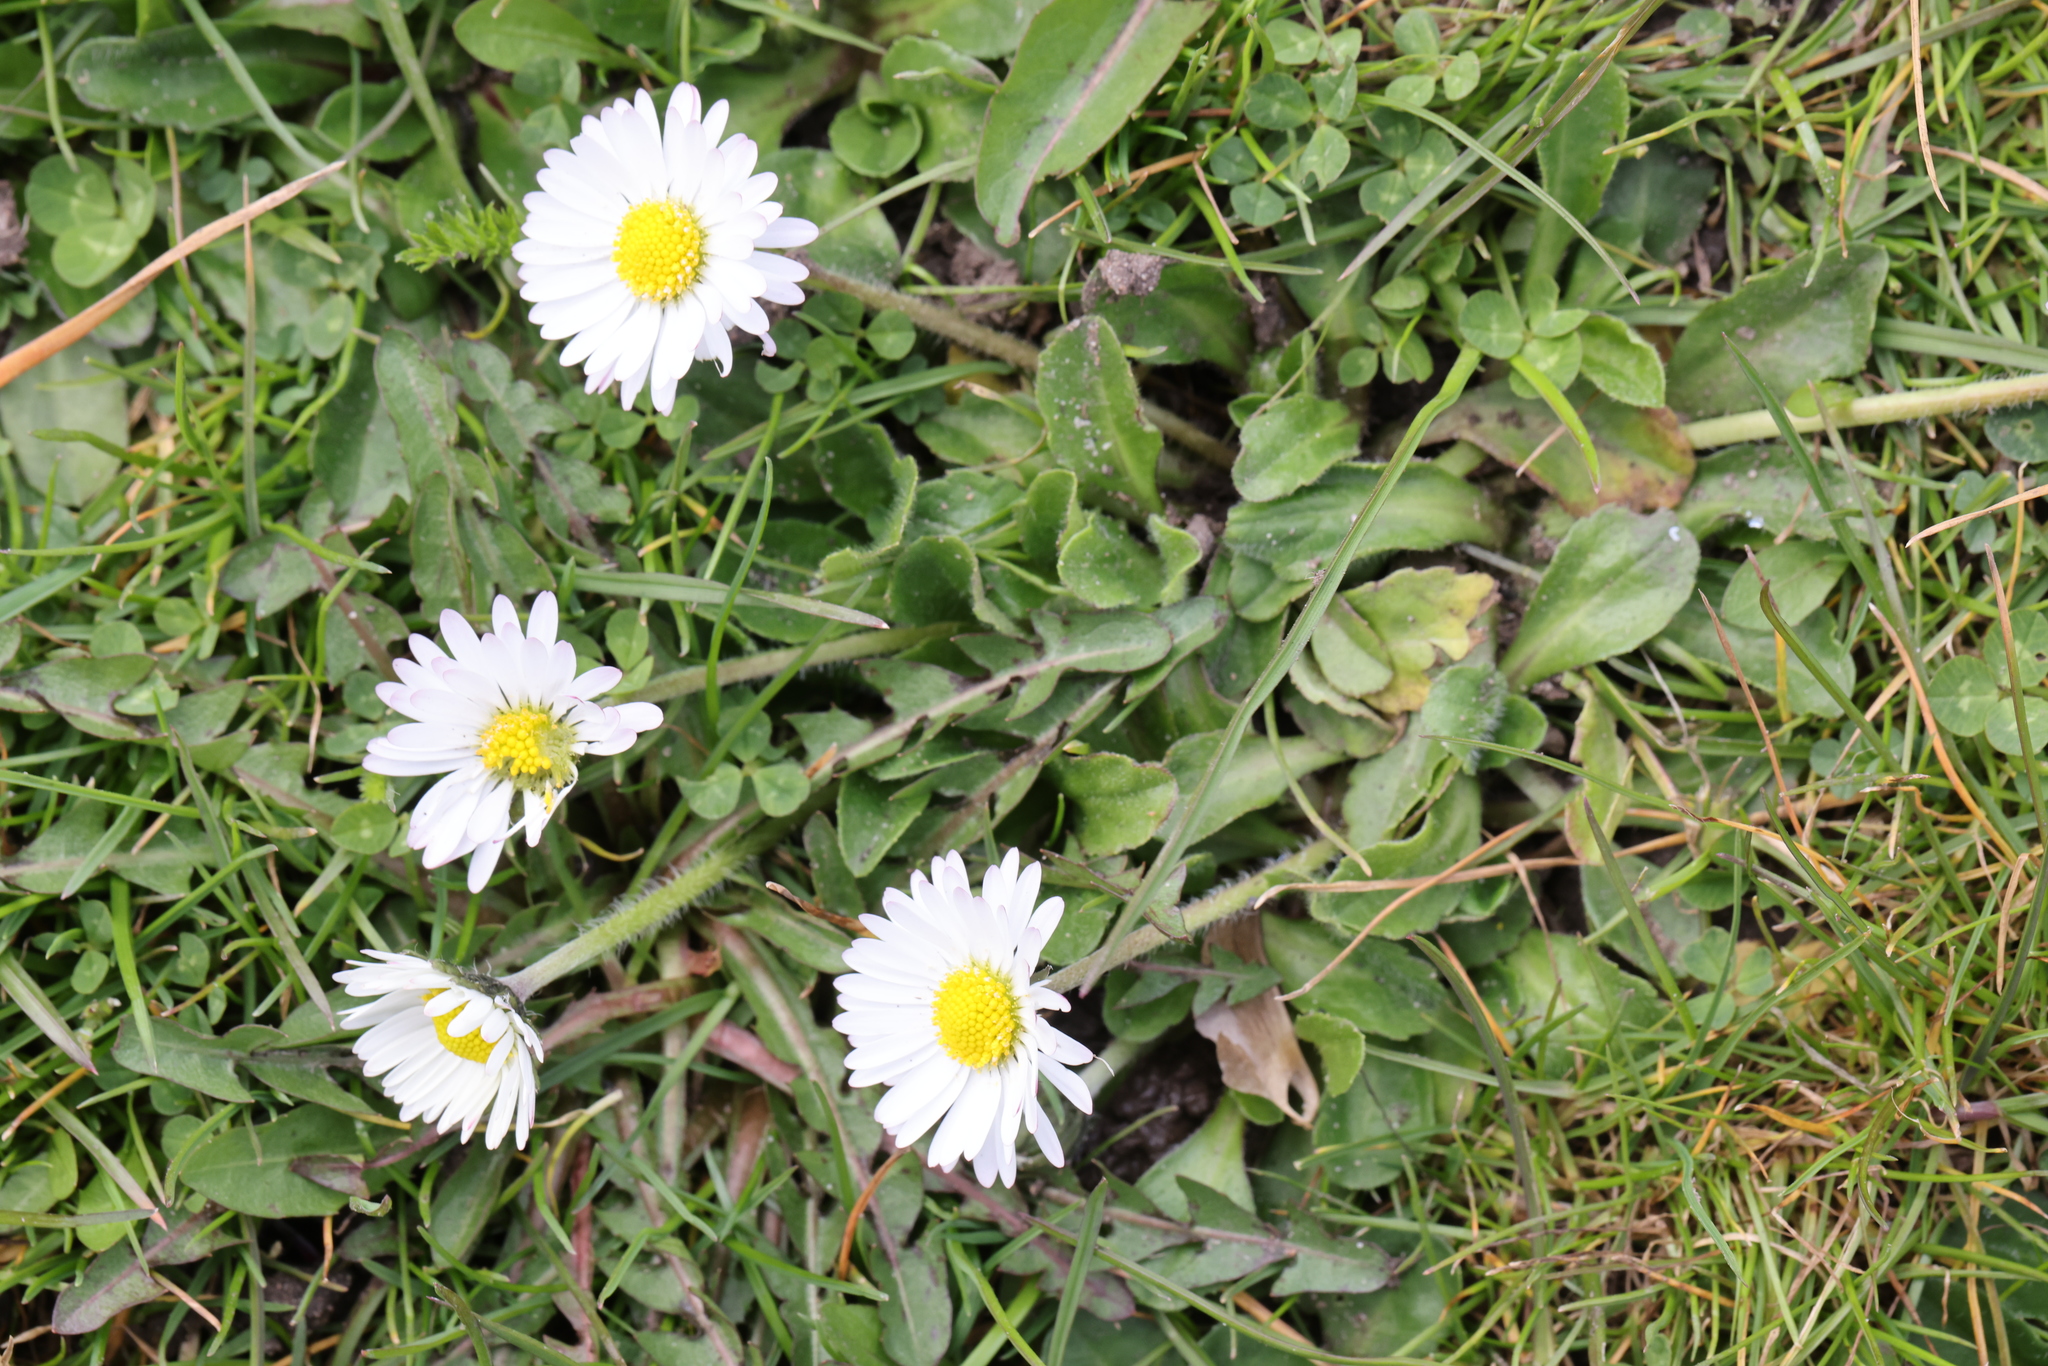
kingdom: Plantae
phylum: Tracheophyta
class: Magnoliopsida
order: Asterales
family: Asteraceae
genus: Bellis
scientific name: Bellis perennis
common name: Lawndaisy
